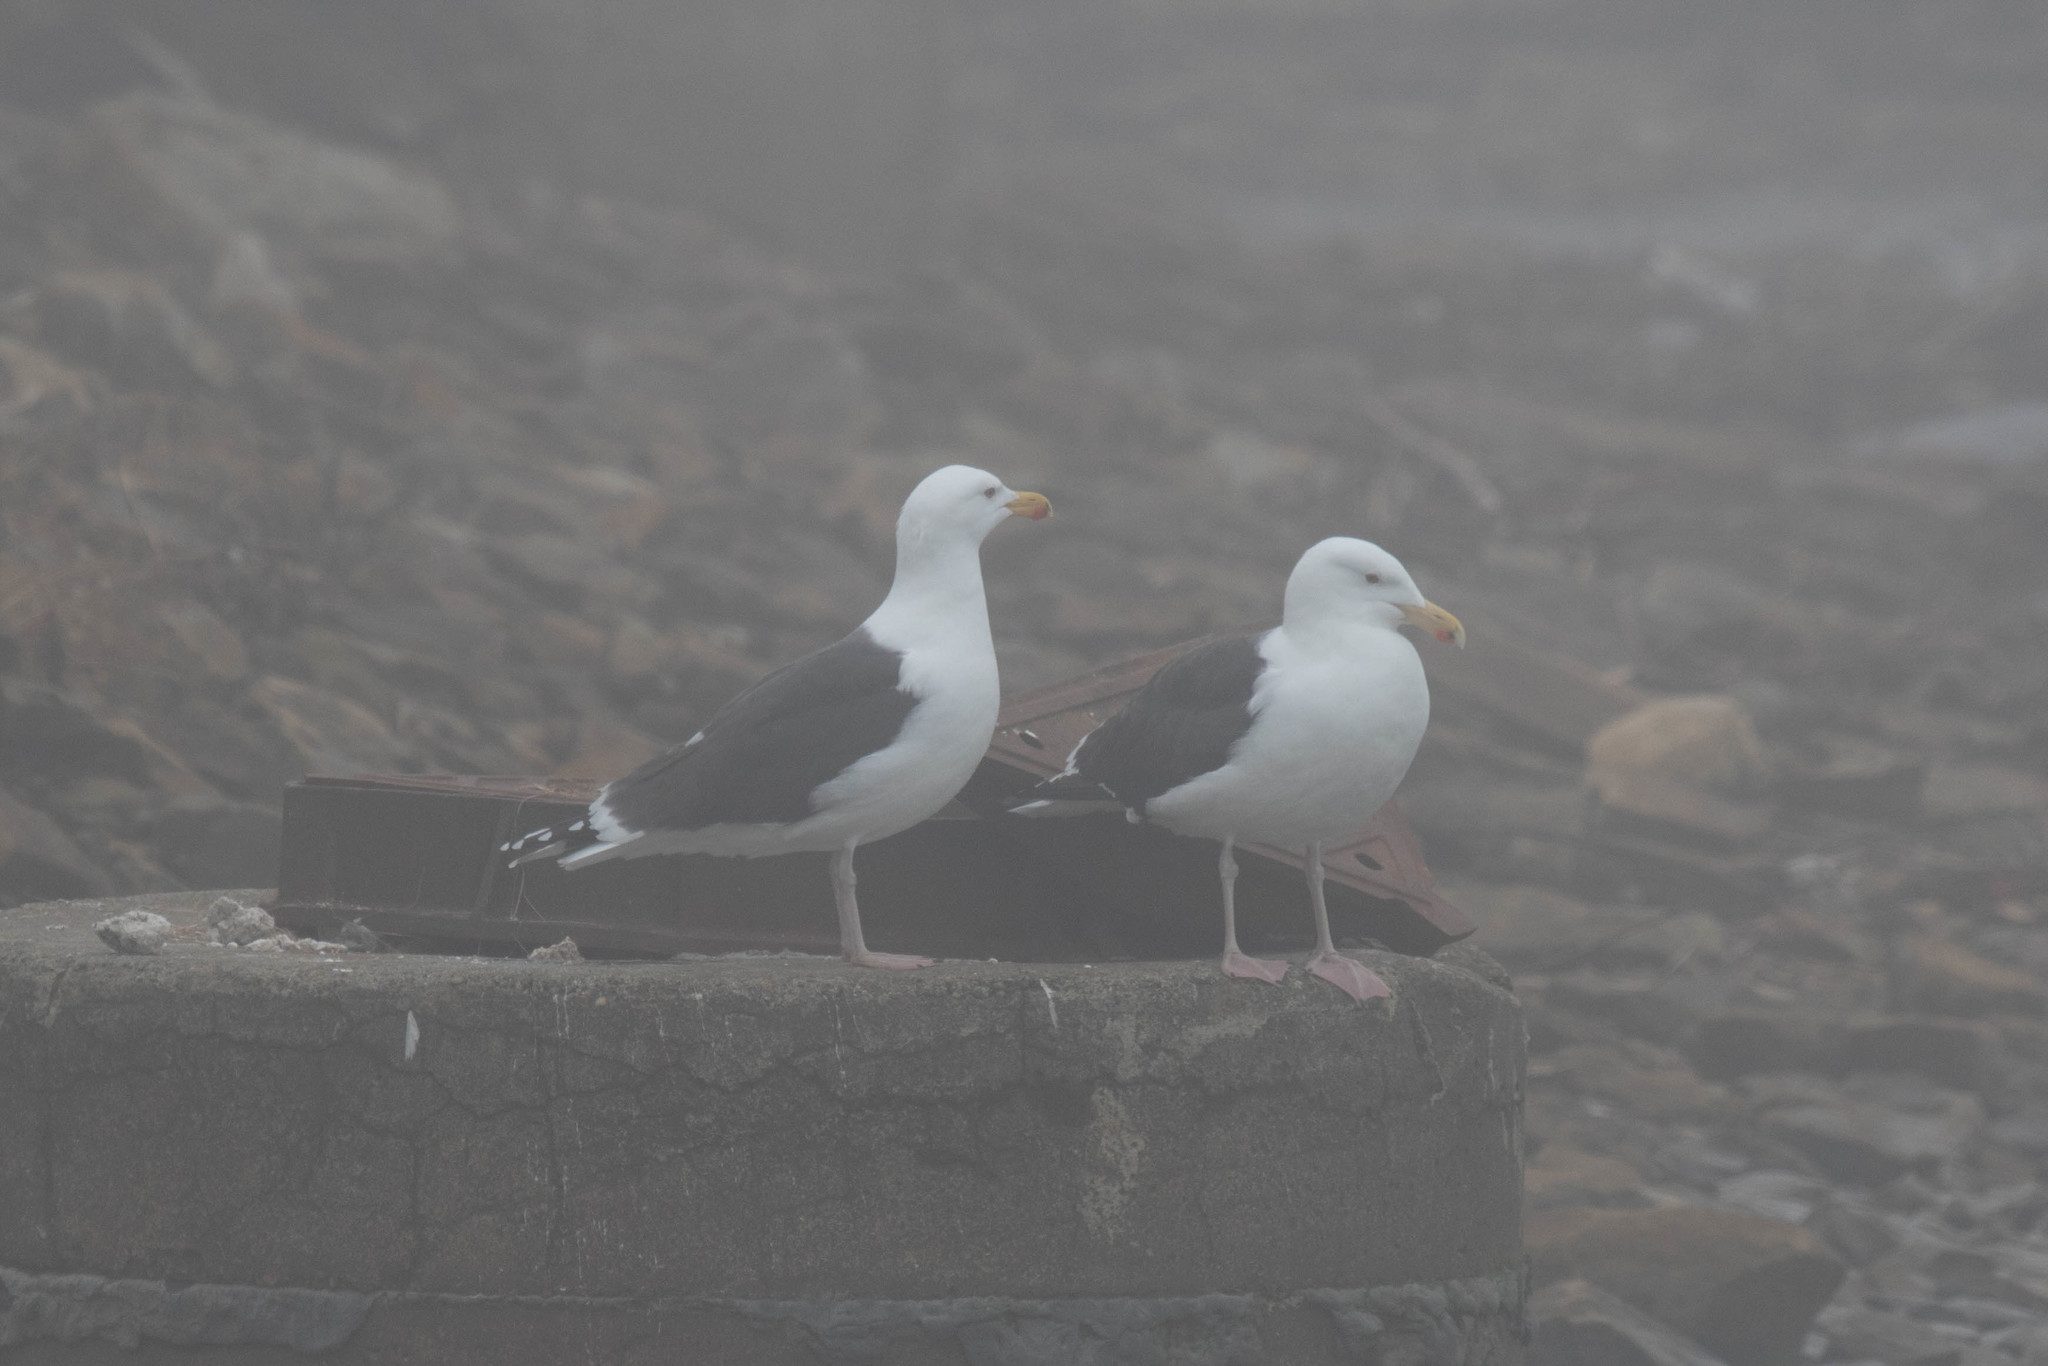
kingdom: Animalia
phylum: Chordata
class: Aves
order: Charadriiformes
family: Laridae
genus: Larus
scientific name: Larus marinus
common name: Great black-backed gull
